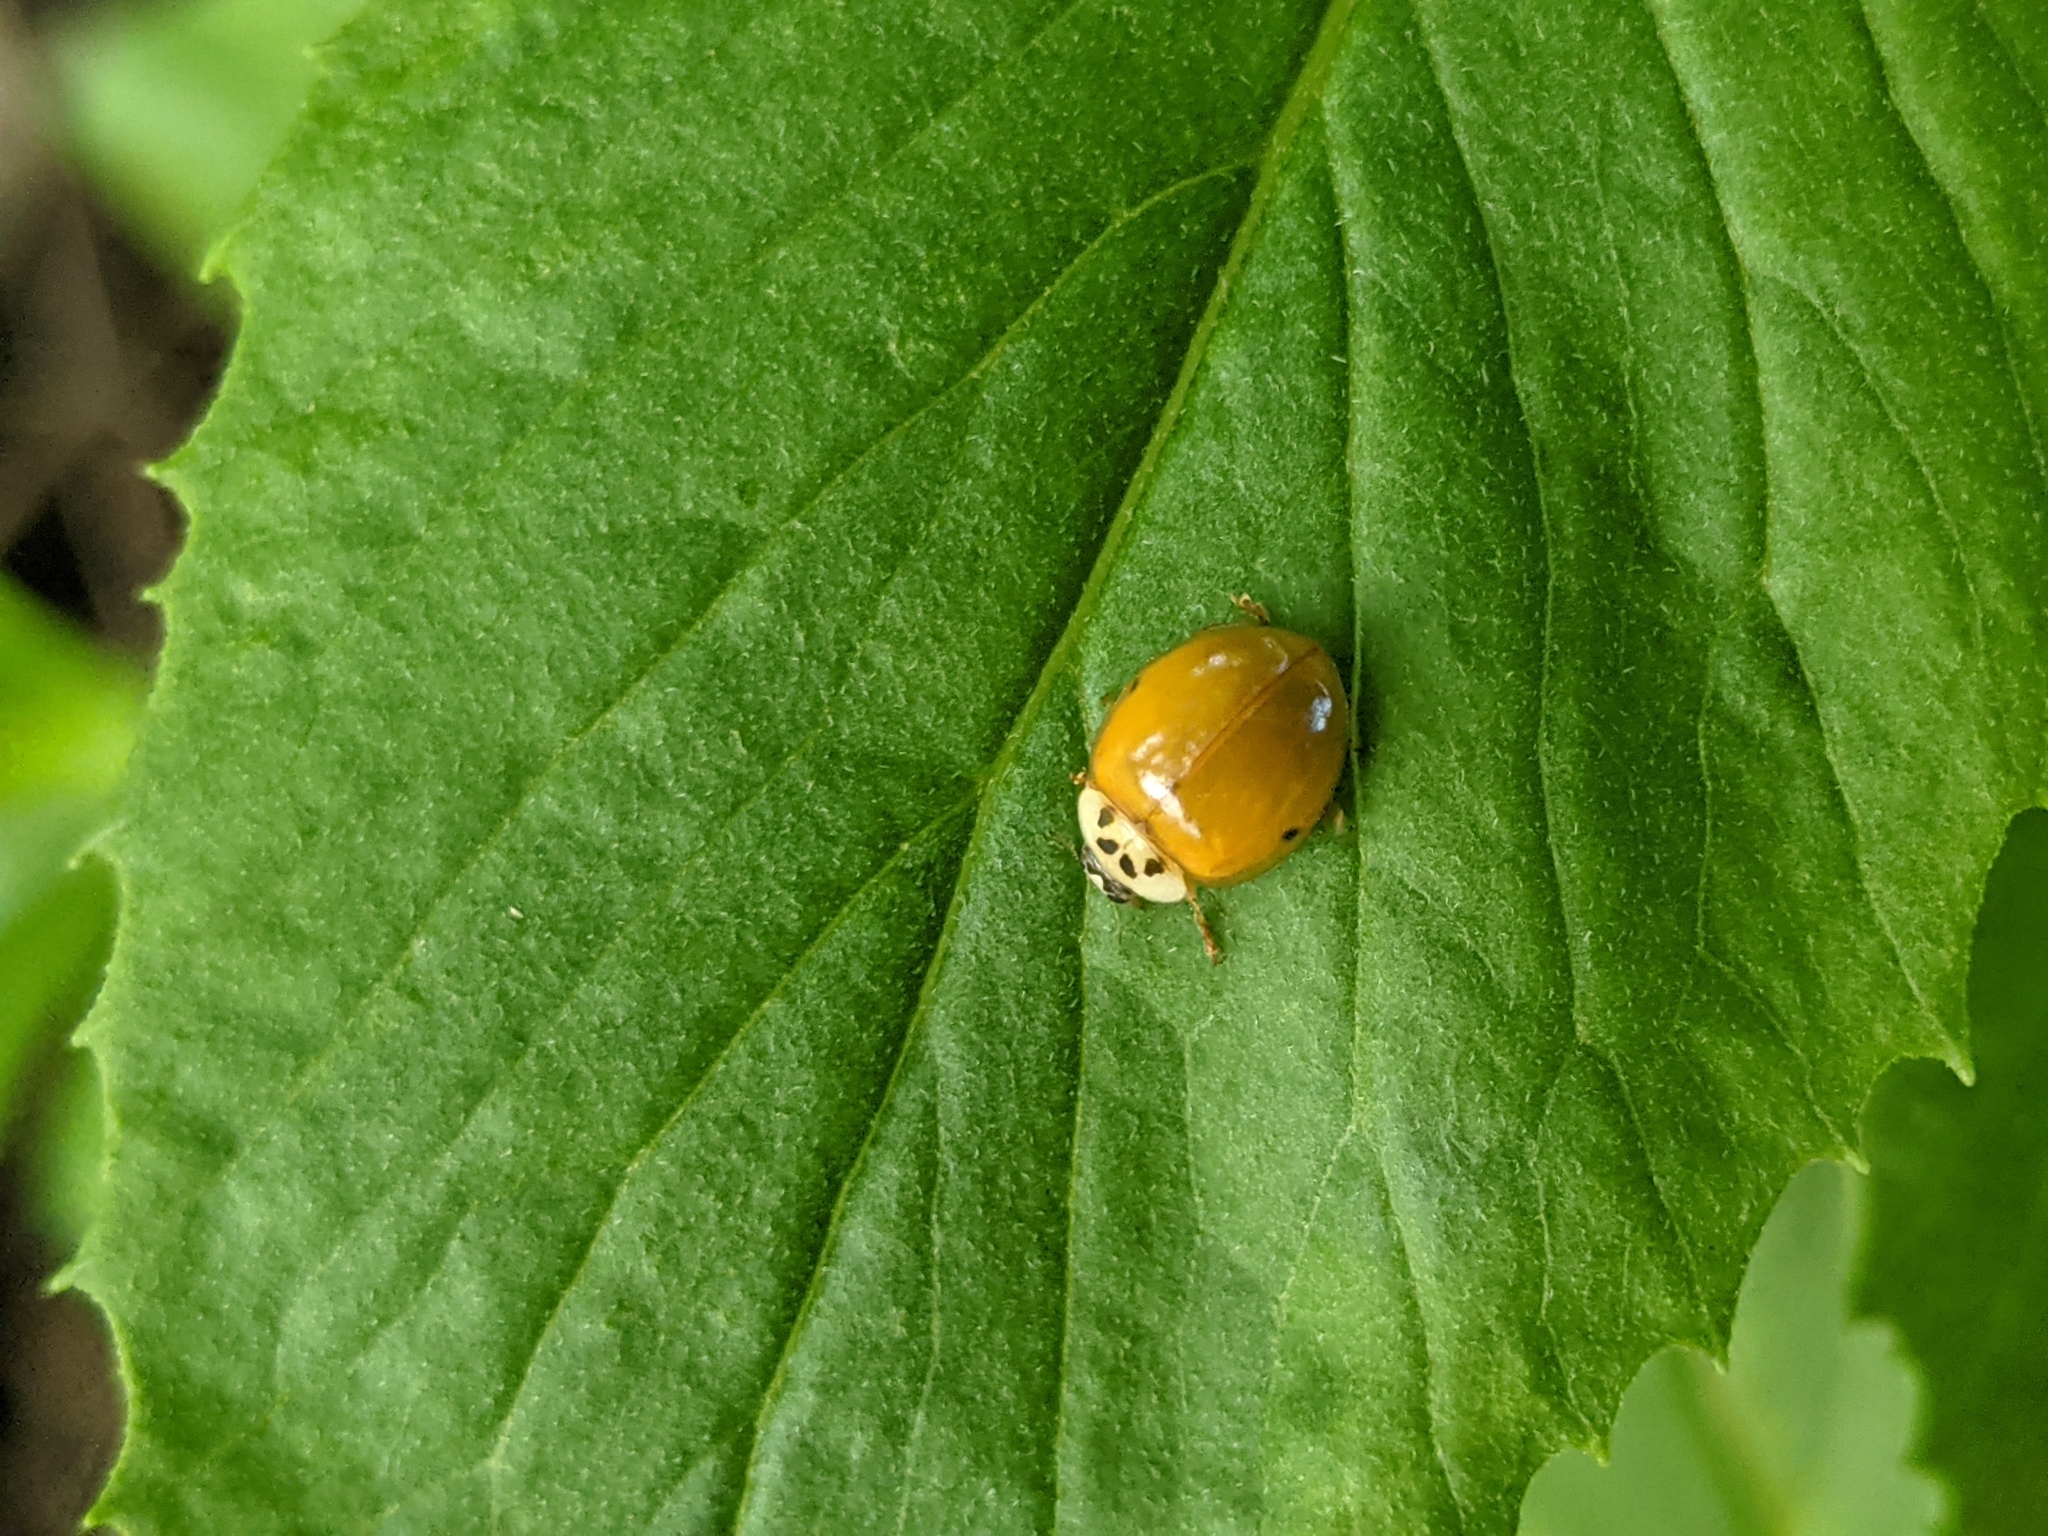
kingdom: Animalia
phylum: Arthropoda
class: Insecta
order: Coleoptera
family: Coccinellidae
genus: Harmonia
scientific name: Harmonia axyridis
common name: Harlequin ladybird
